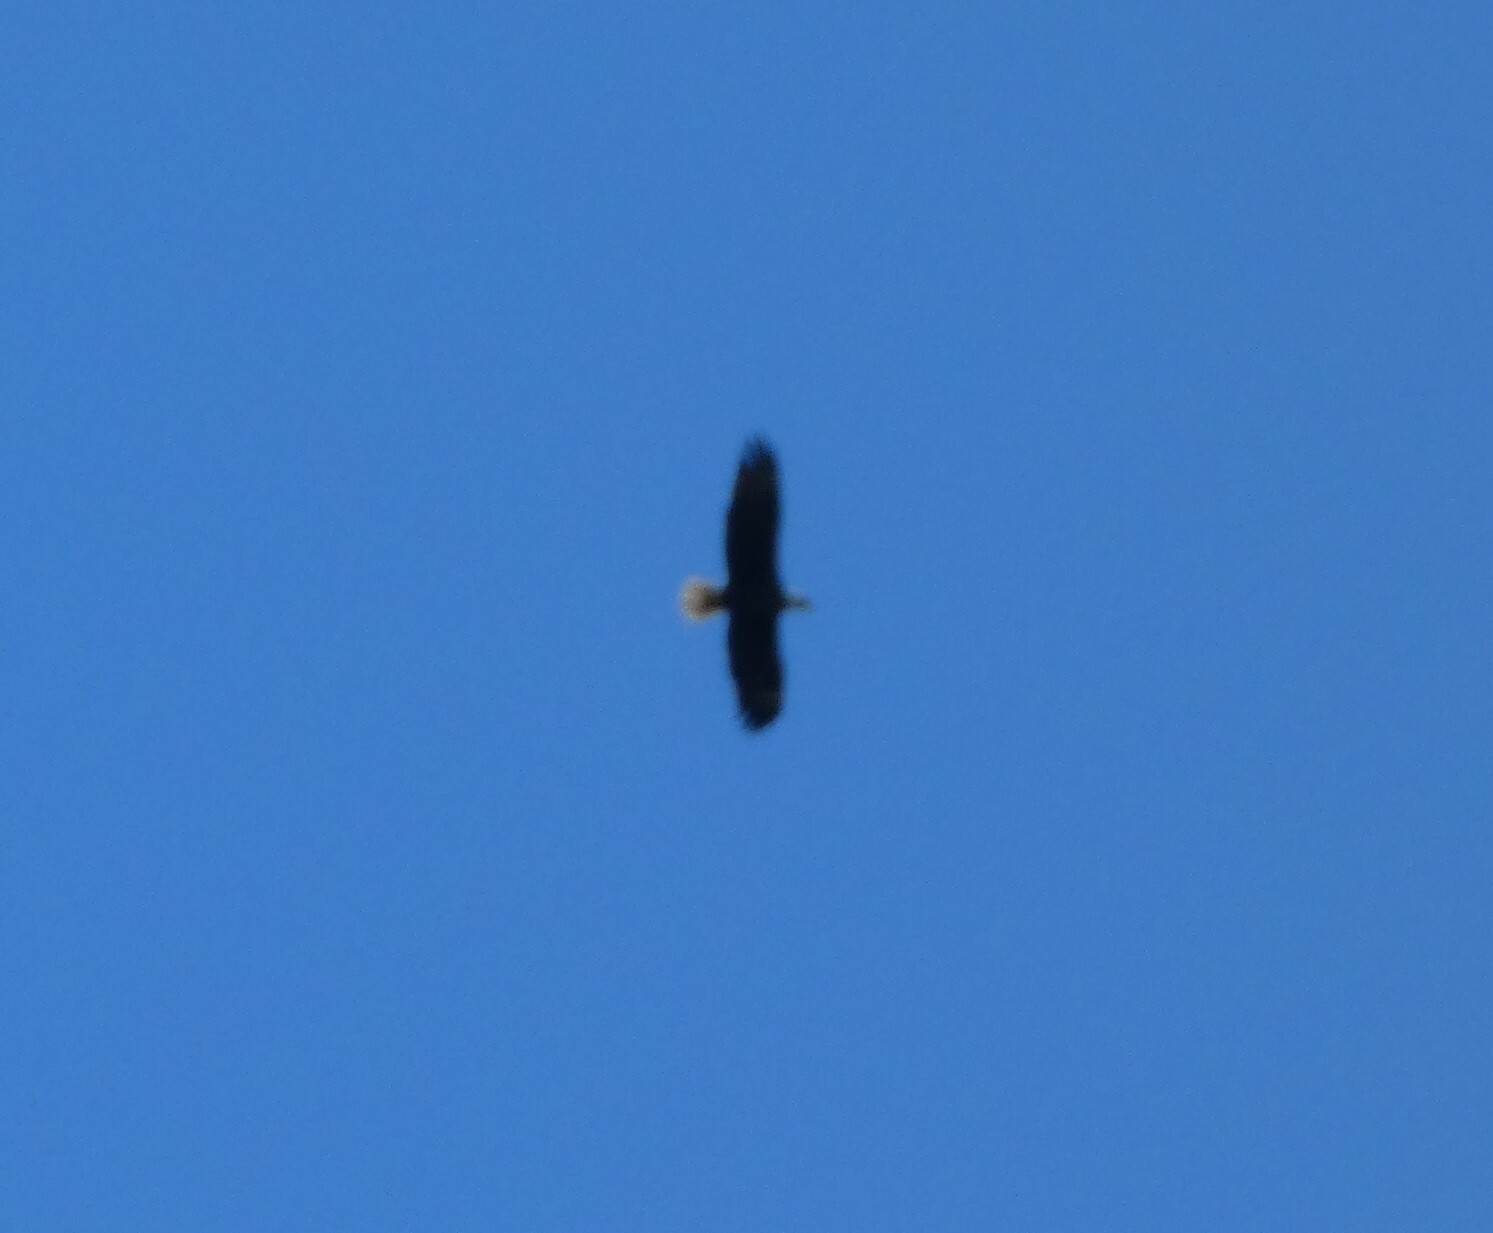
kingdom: Animalia
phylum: Chordata
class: Aves
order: Accipitriformes
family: Accipitridae
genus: Haliaeetus
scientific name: Haliaeetus leucocephalus
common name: Bald eagle
